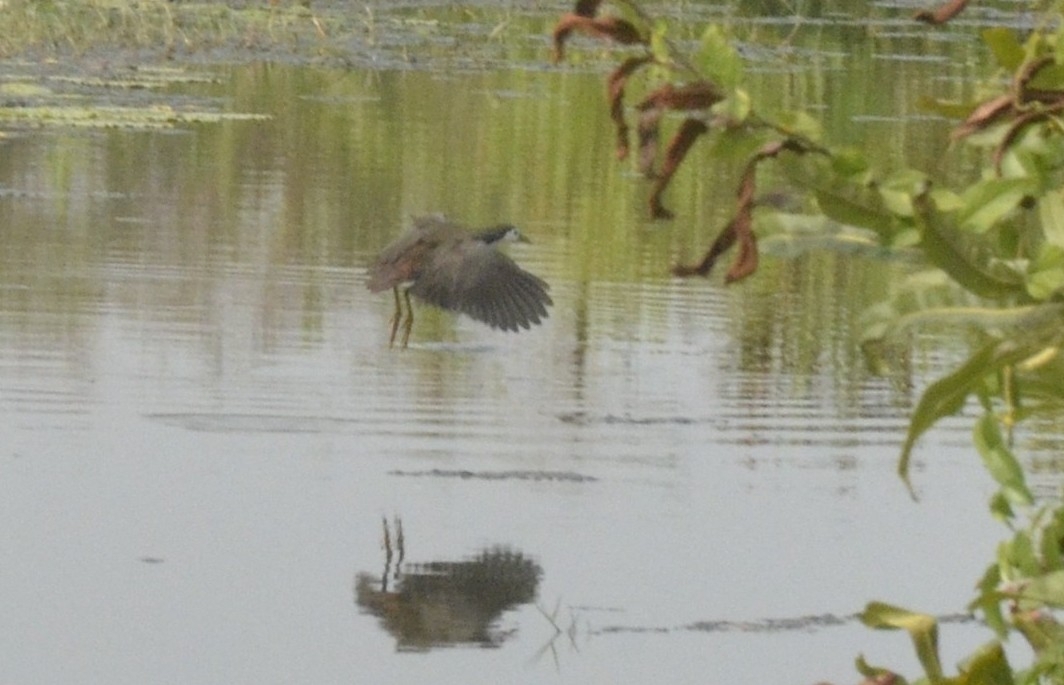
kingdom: Animalia
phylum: Chordata
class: Aves
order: Gruiformes
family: Rallidae
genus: Amaurornis
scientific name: Amaurornis phoenicurus
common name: White-breasted waterhen
